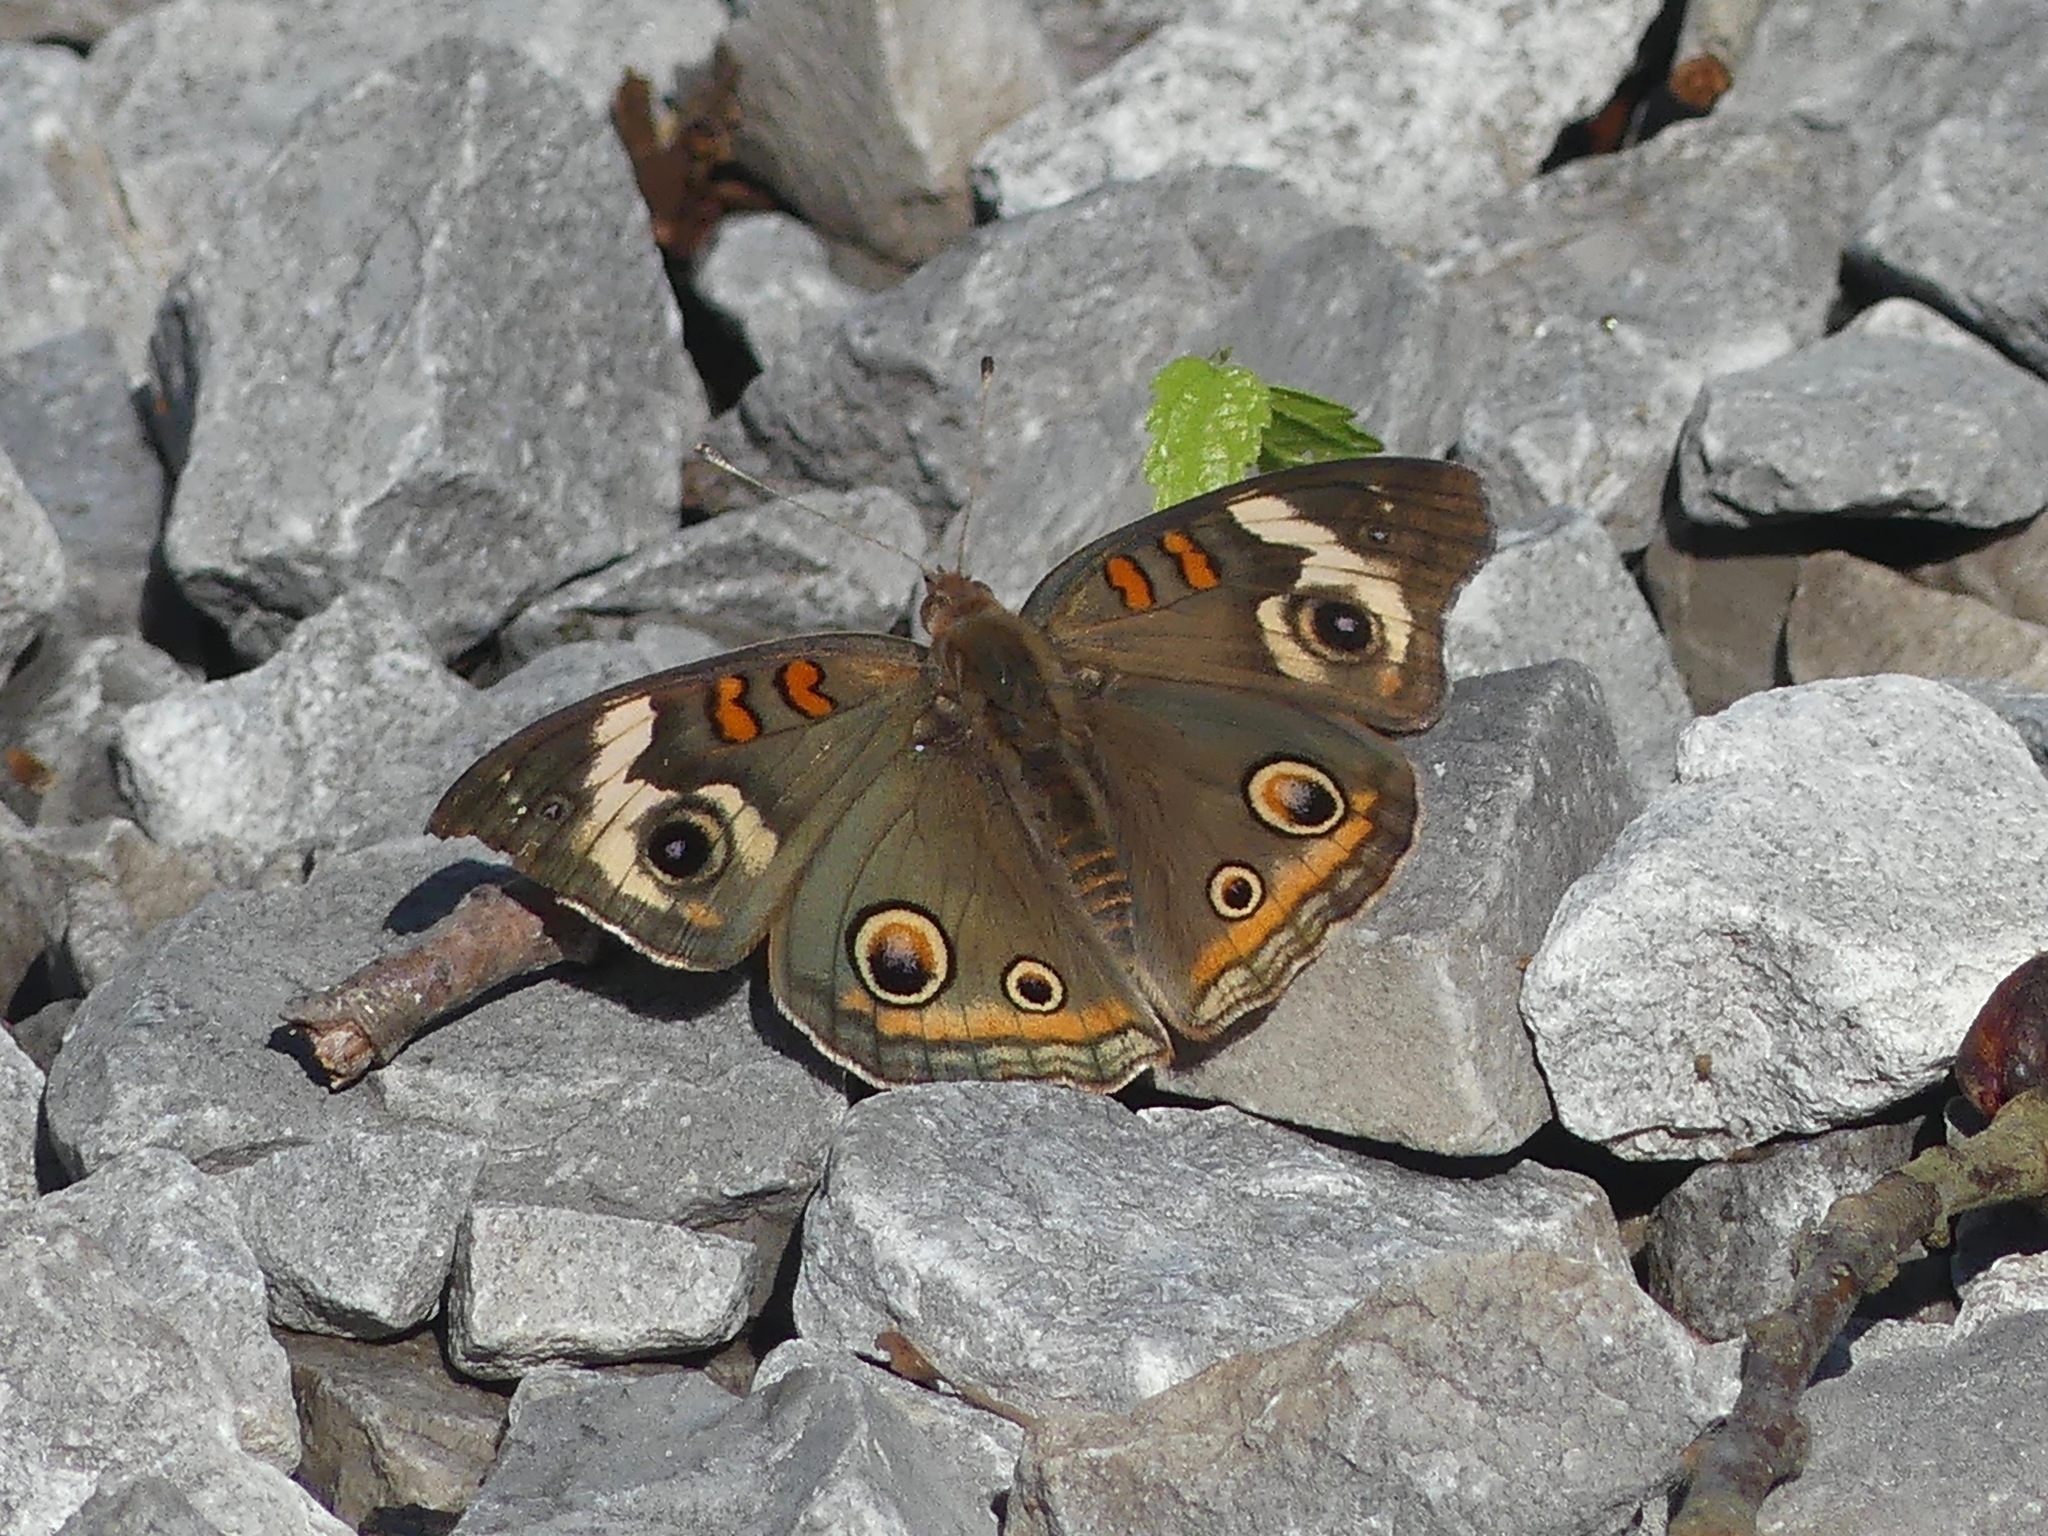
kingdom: Animalia
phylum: Arthropoda
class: Insecta
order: Lepidoptera
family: Nymphalidae
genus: Junonia
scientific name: Junonia coenia
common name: Common buckeye
